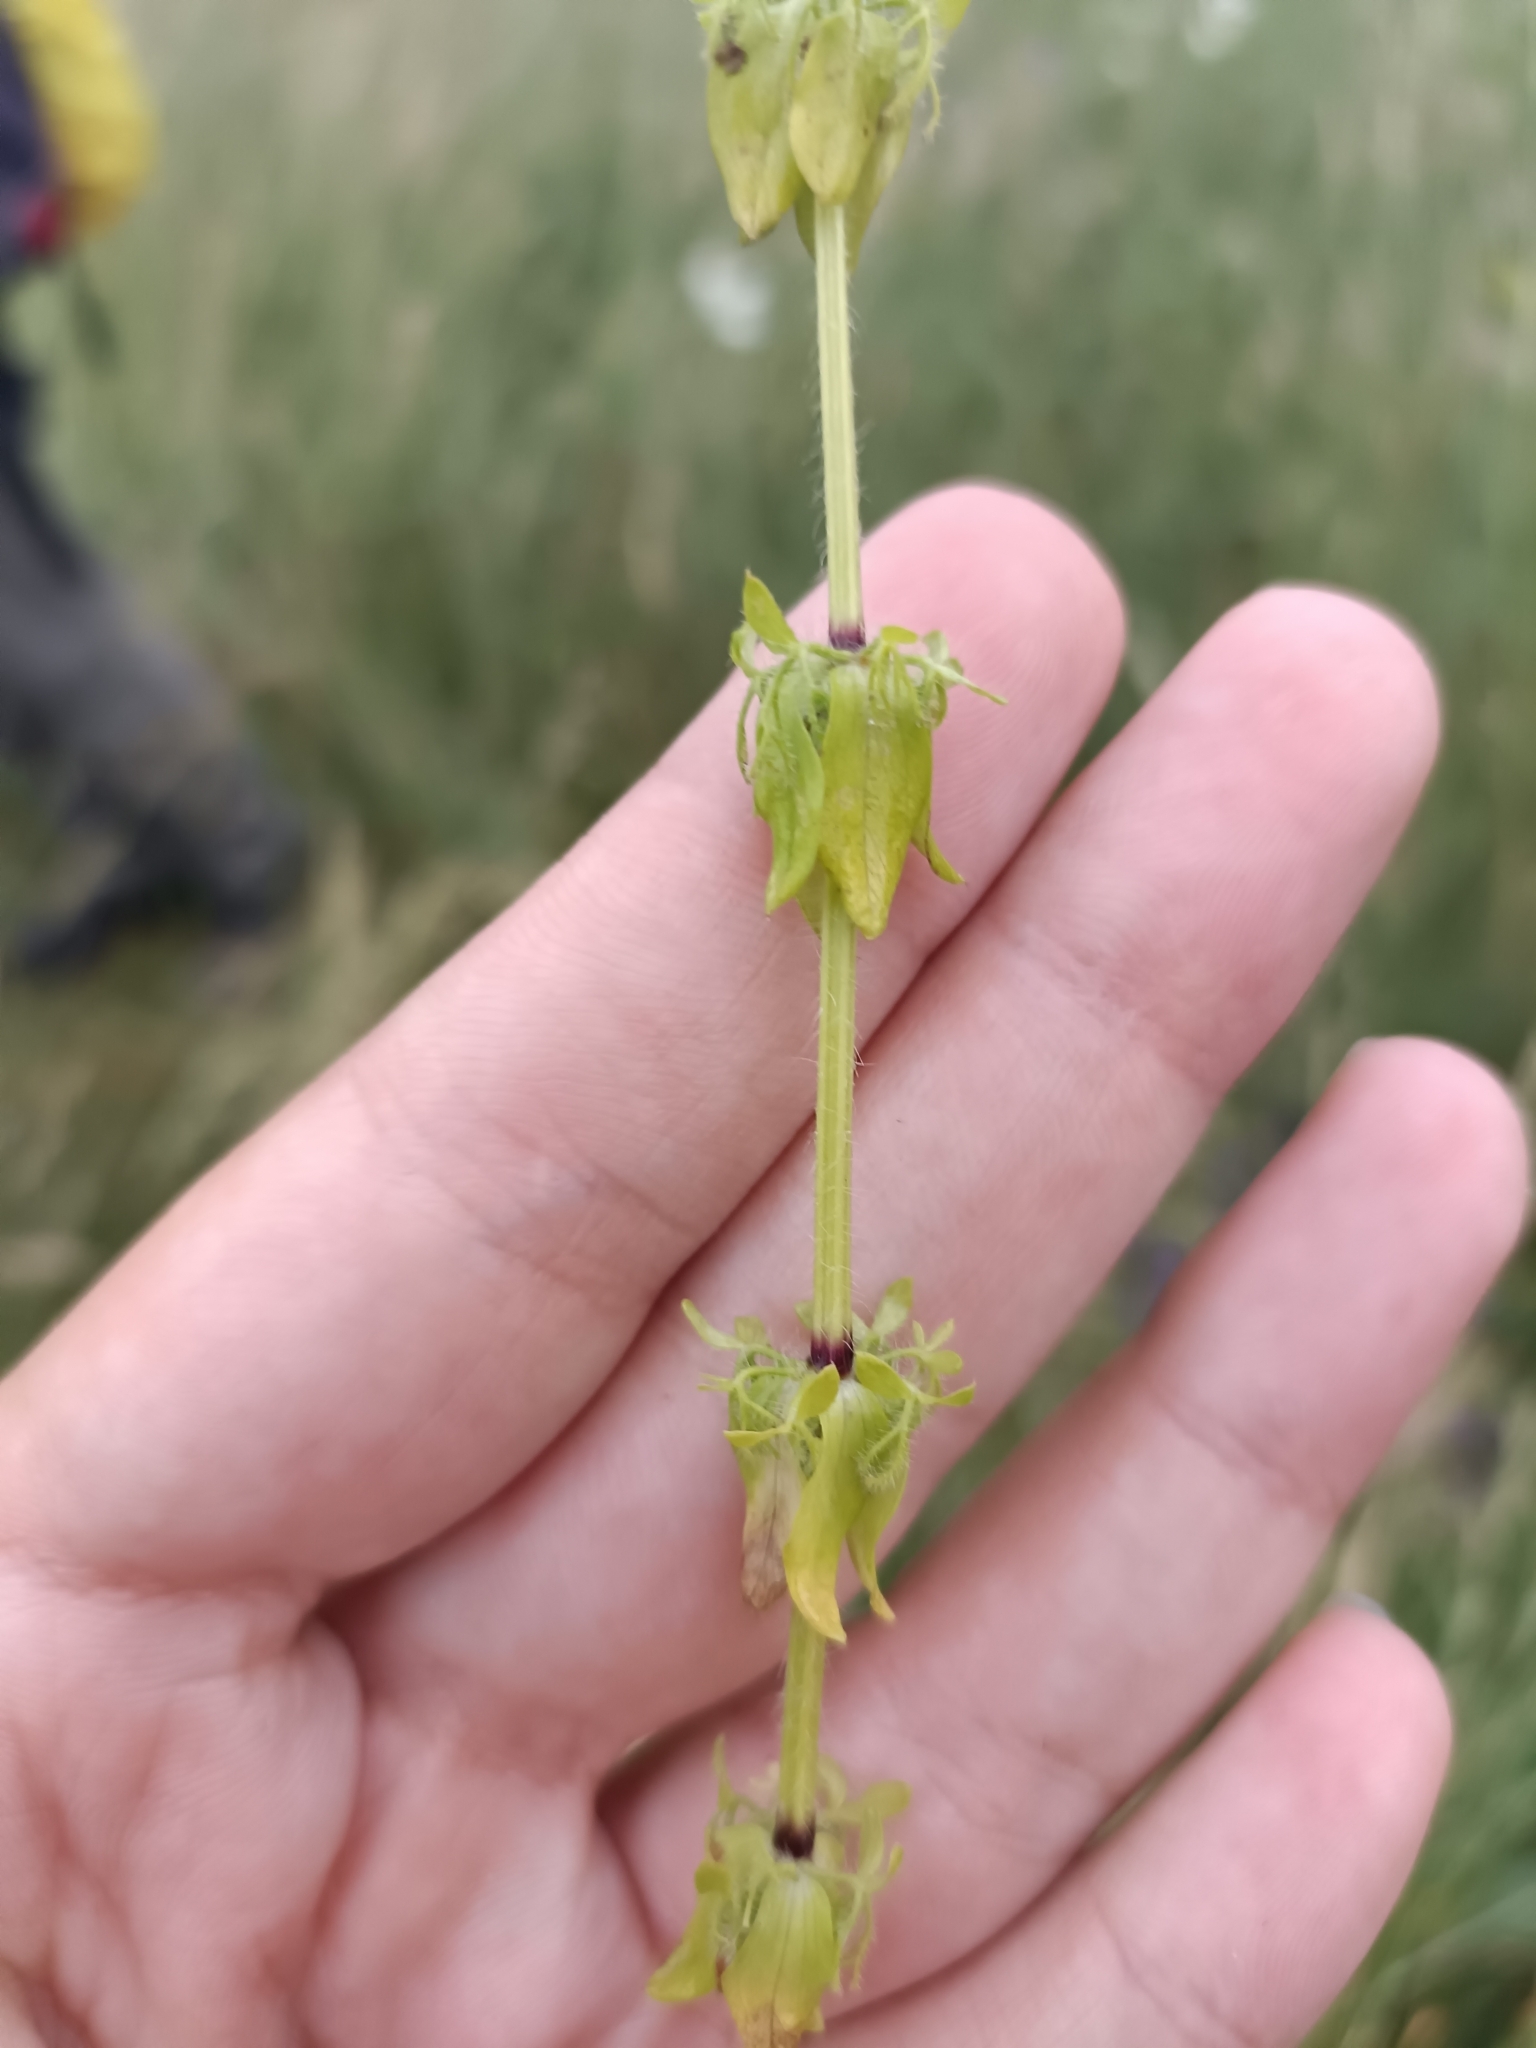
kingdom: Plantae
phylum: Tracheophyta
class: Magnoliopsida
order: Gentianales
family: Rubiaceae
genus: Cruciata
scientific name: Cruciata laevipes
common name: Crosswort
